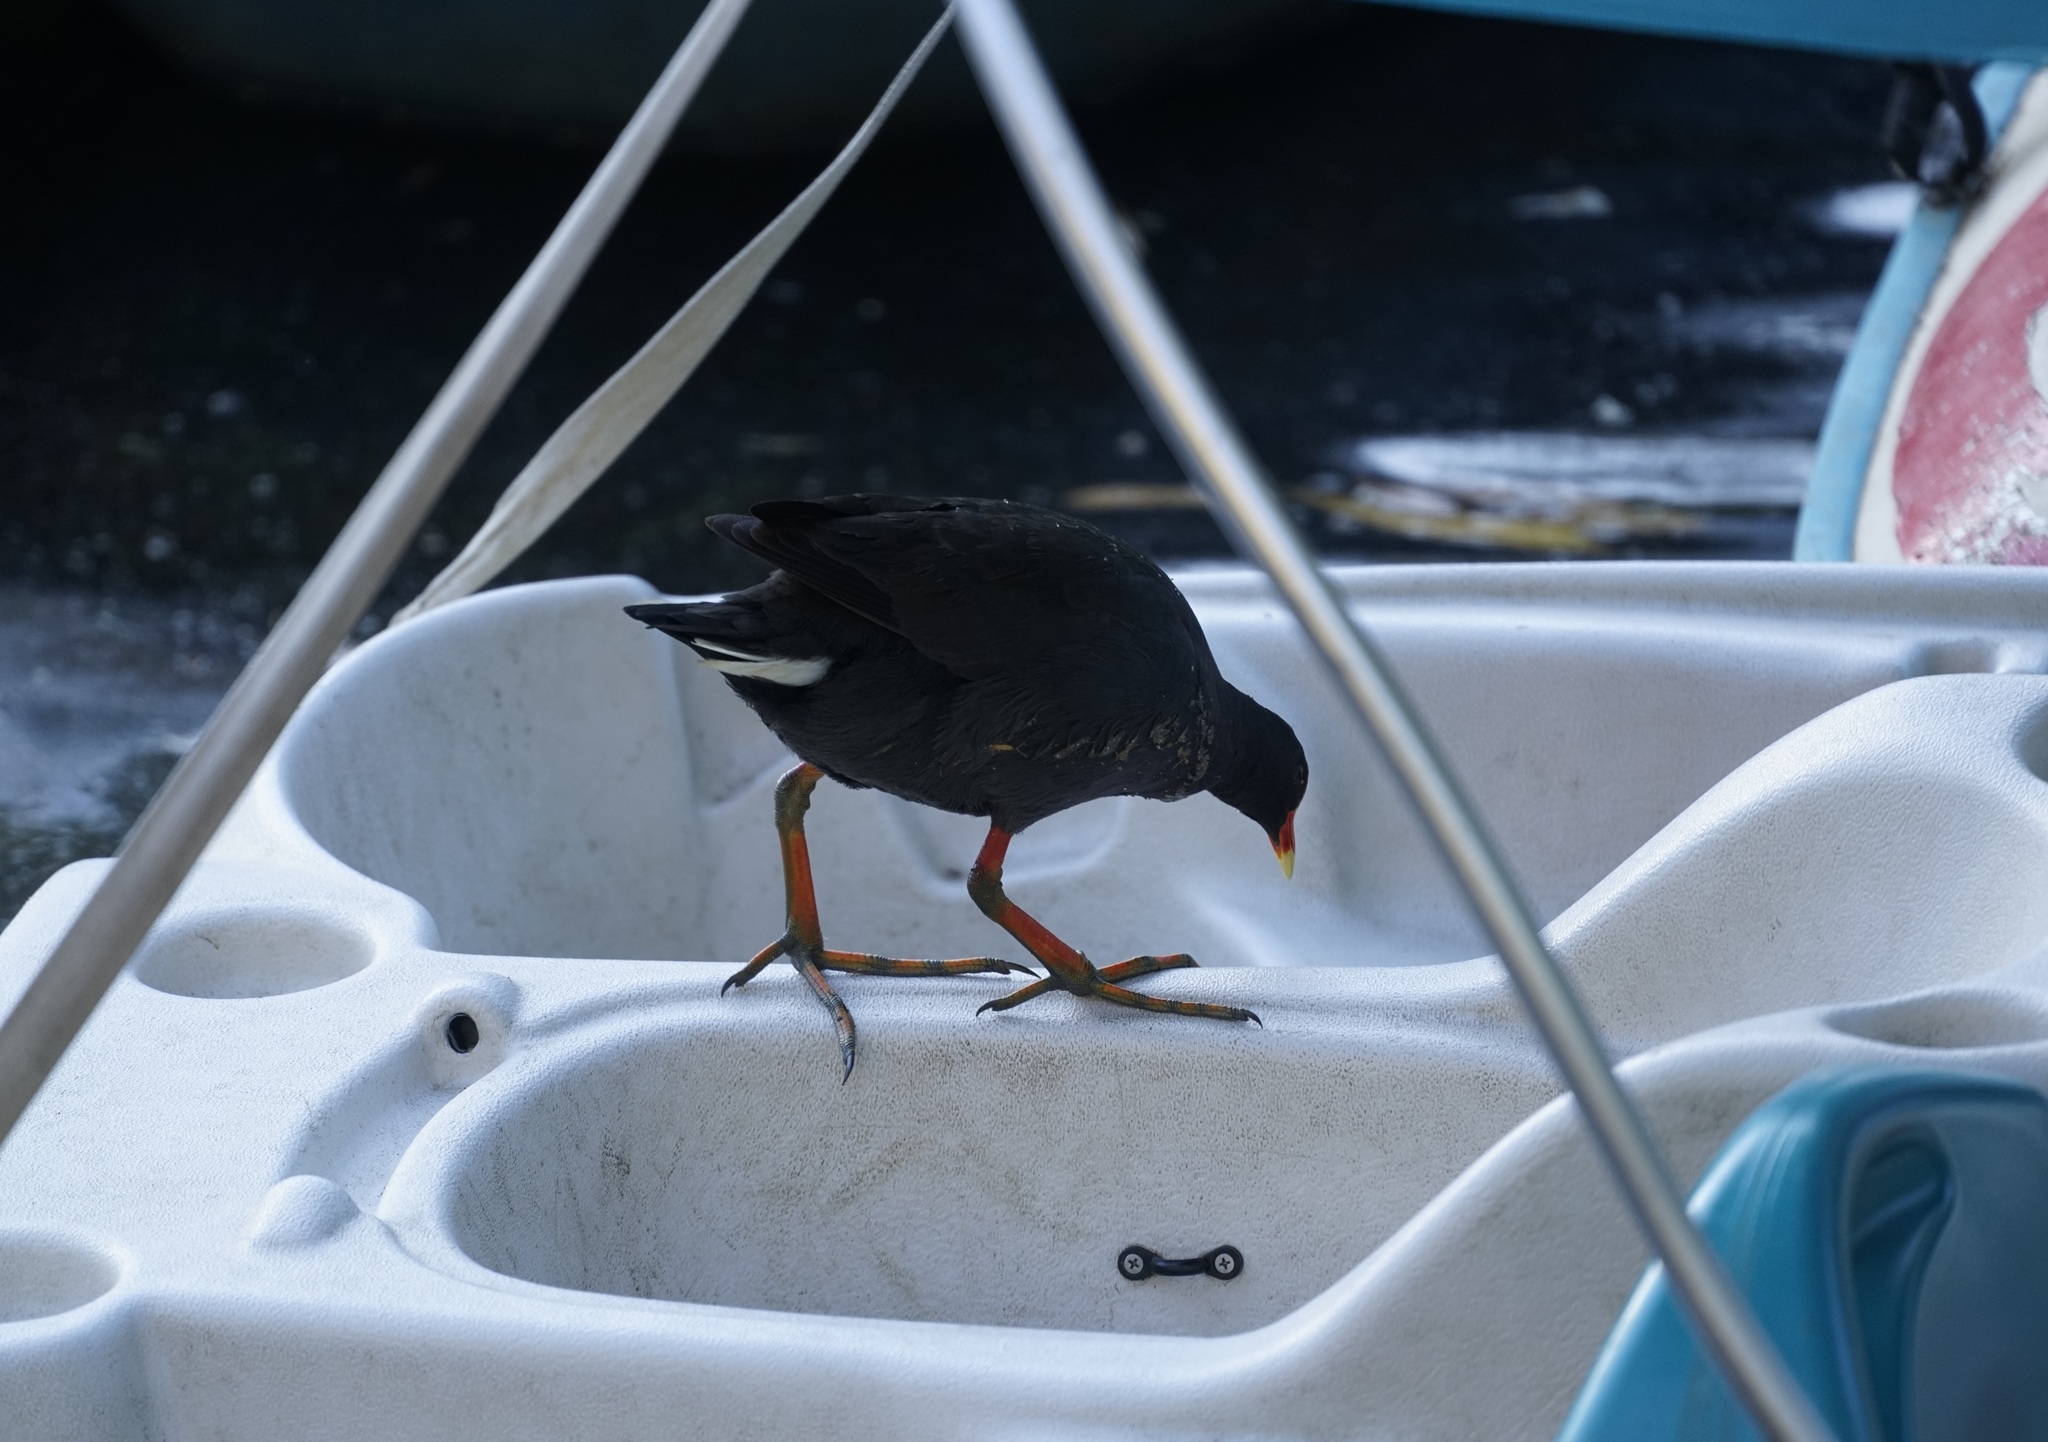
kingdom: Animalia
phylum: Chordata
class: Aves
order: Gruiformes
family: Rallidae
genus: Gallinula
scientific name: Gallinula tenebrosa
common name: Dusky moorhen
